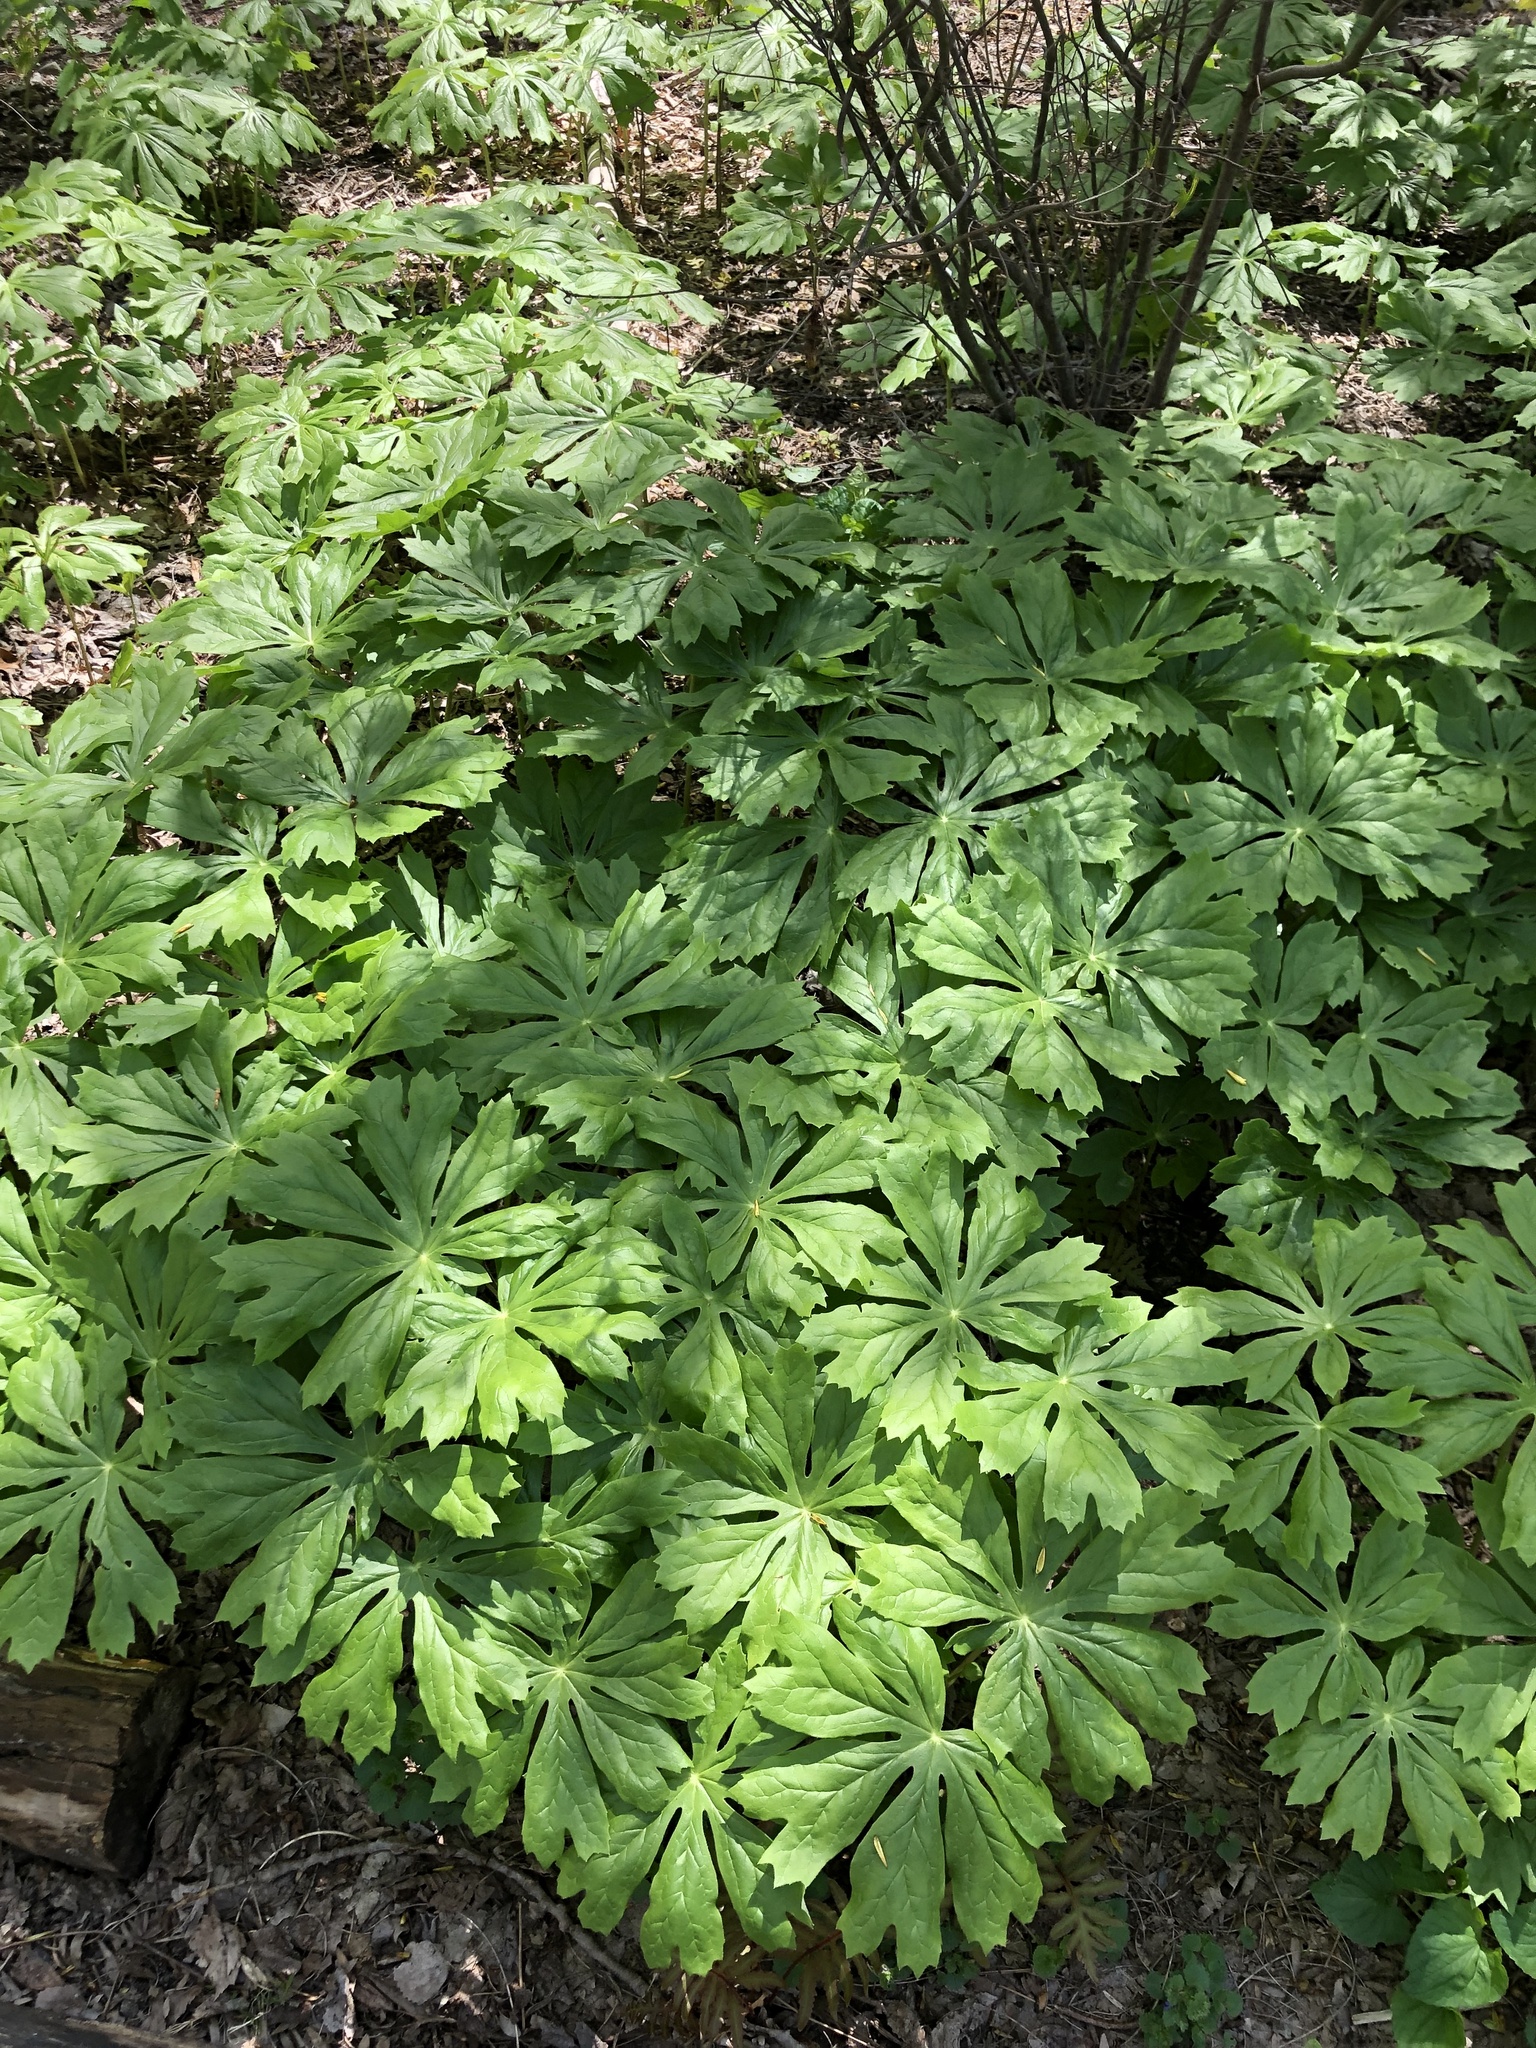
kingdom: Plantae
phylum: Tracheophyta
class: Magnoliopsida
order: Ranunculales
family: Berberidaceae
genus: Podophyllum
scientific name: Podophyllum peltatum
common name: Wild mandrake
